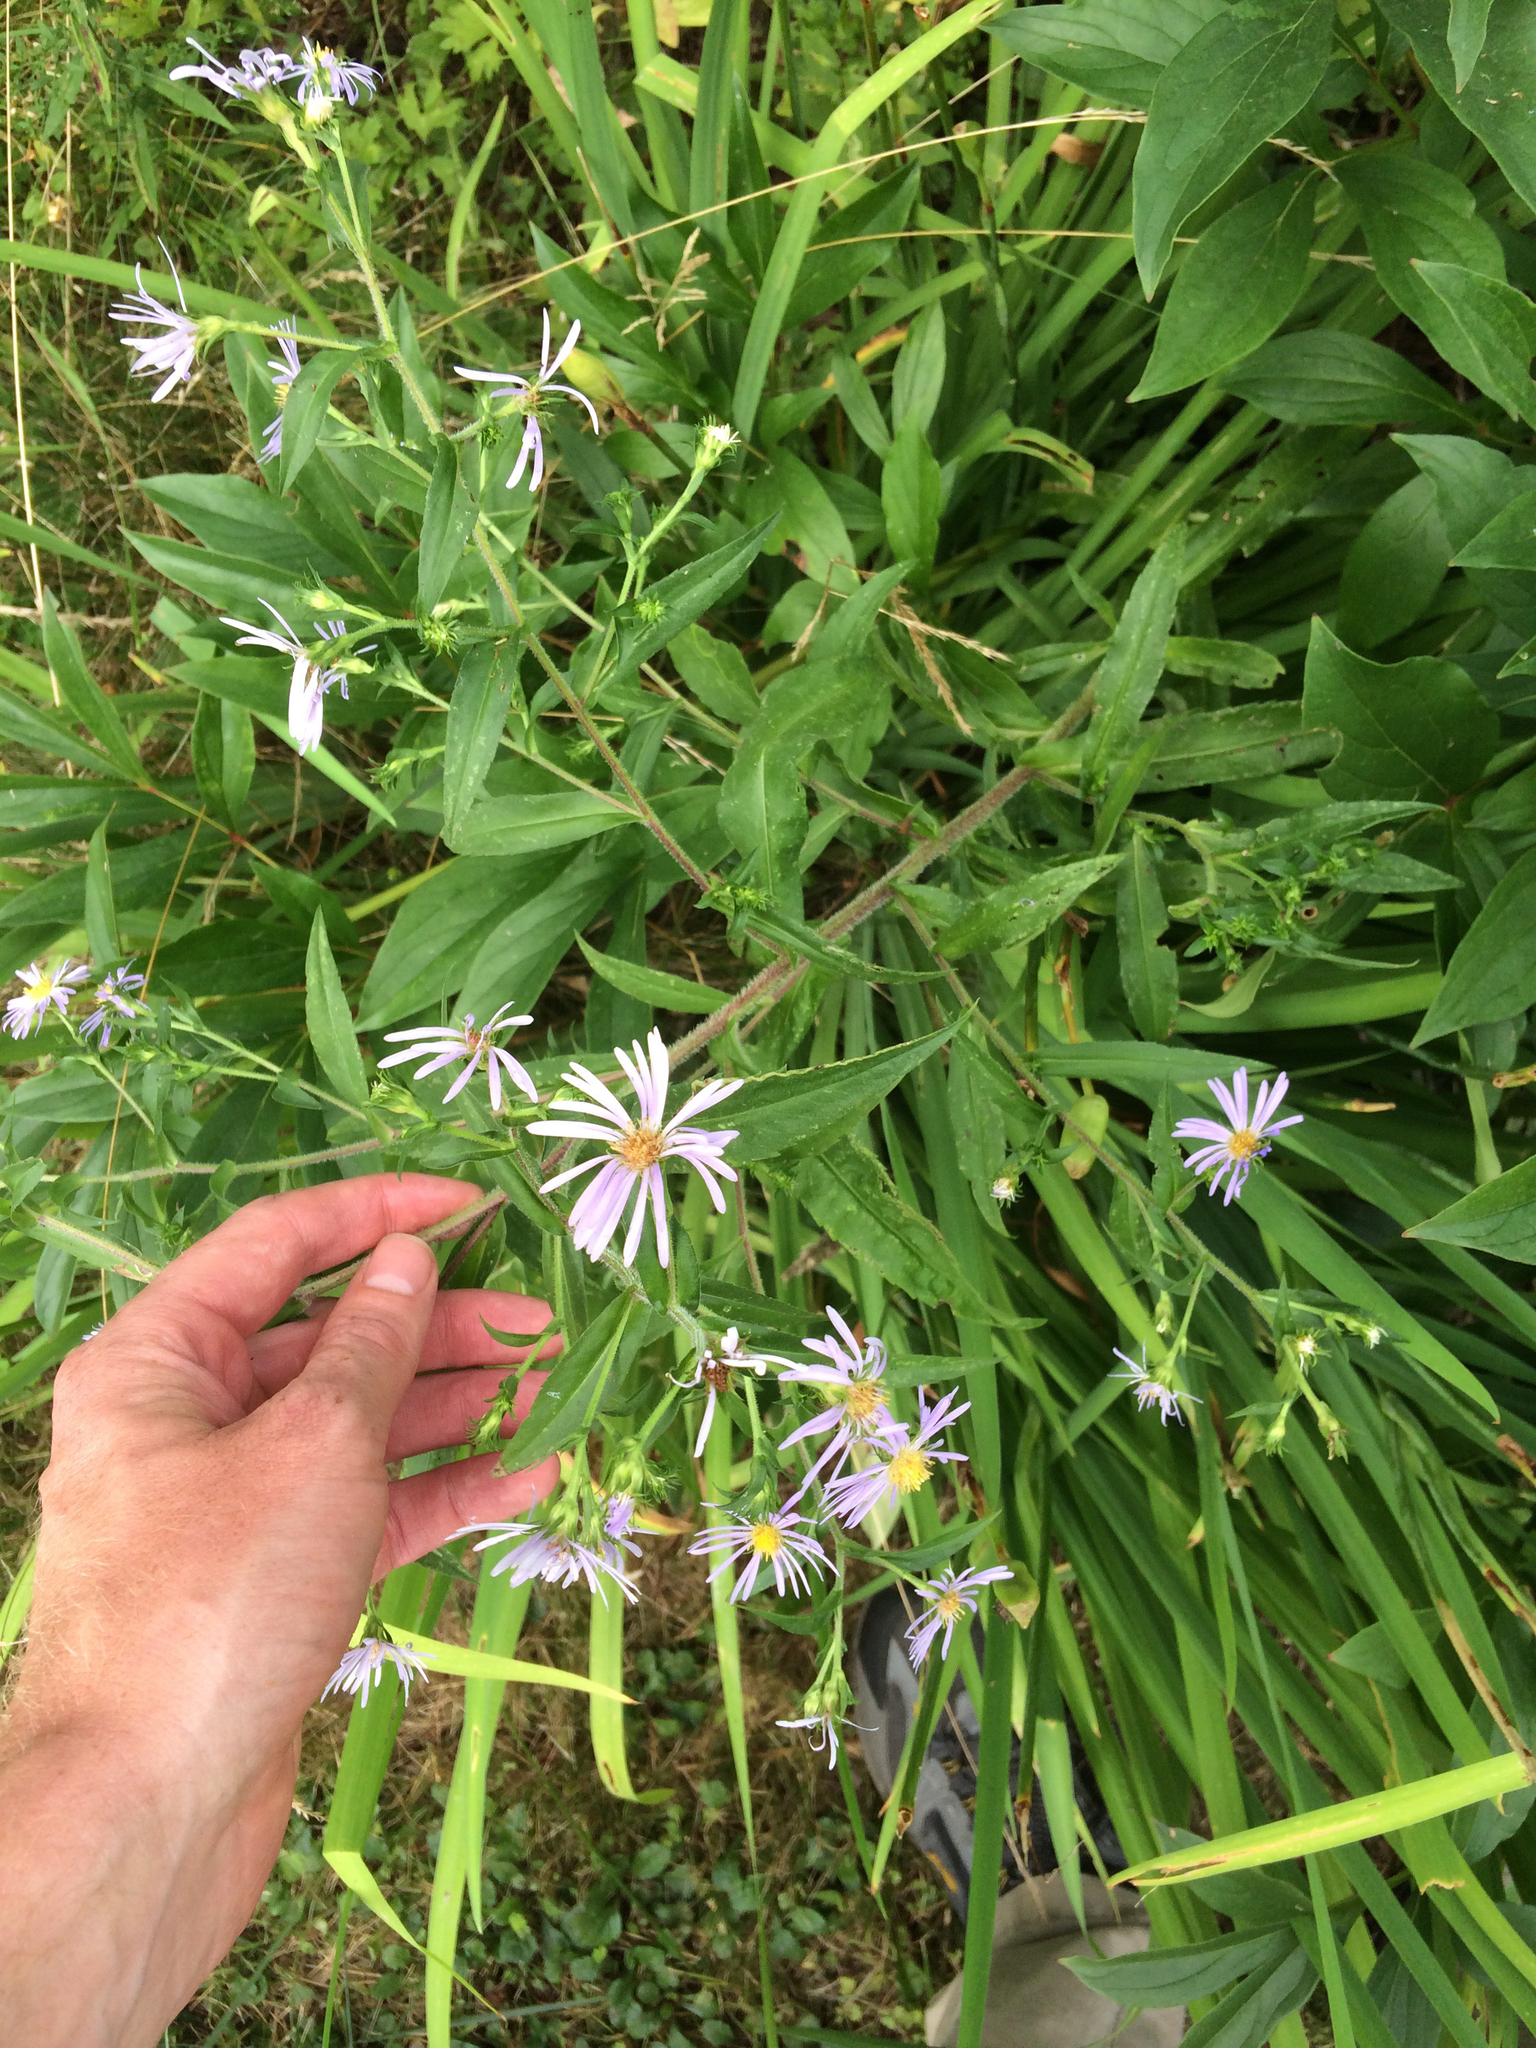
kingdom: Plantae
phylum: Tracheophyta
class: Magnoliopsida
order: Asterales
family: Asteraceae
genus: Symphyotrichum
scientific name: Symphyotrichum puniceum
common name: Bog aster
